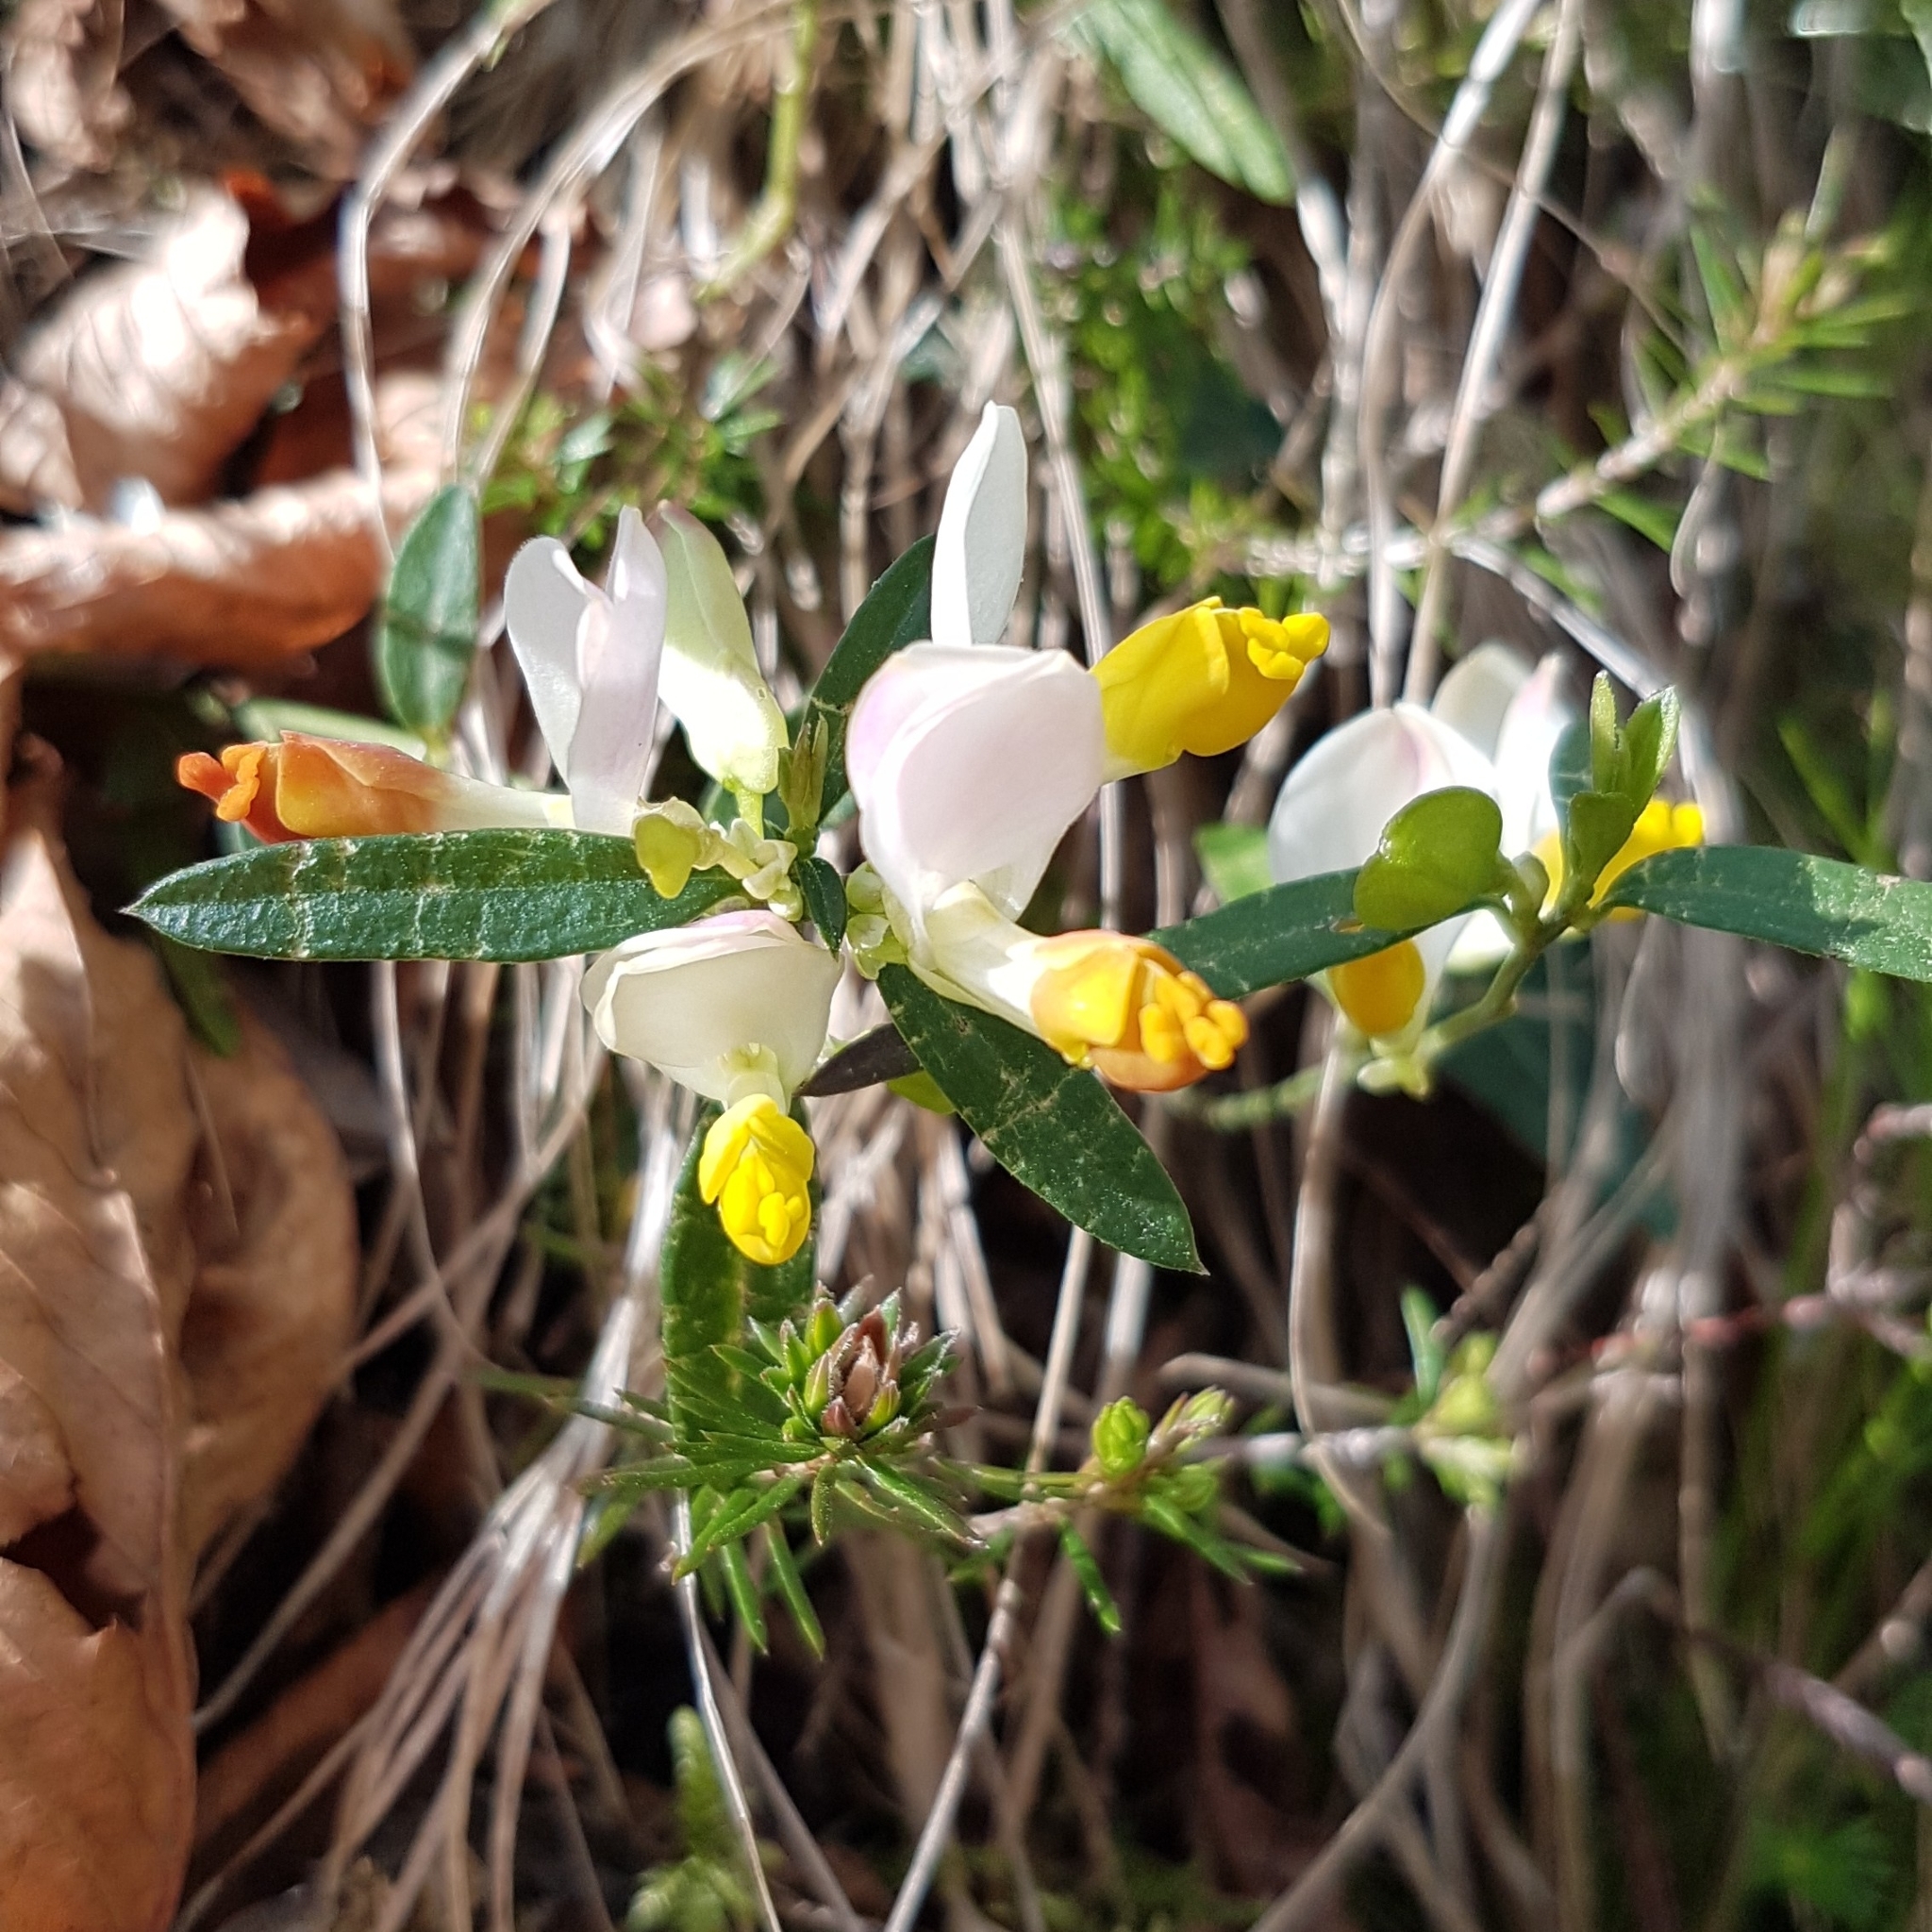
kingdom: Plantae
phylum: Tracheophyta
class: Magnoliopsida
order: Fabales
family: Polygalaceae
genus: Polygaloides
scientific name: Polygaloides chamaebuxus
